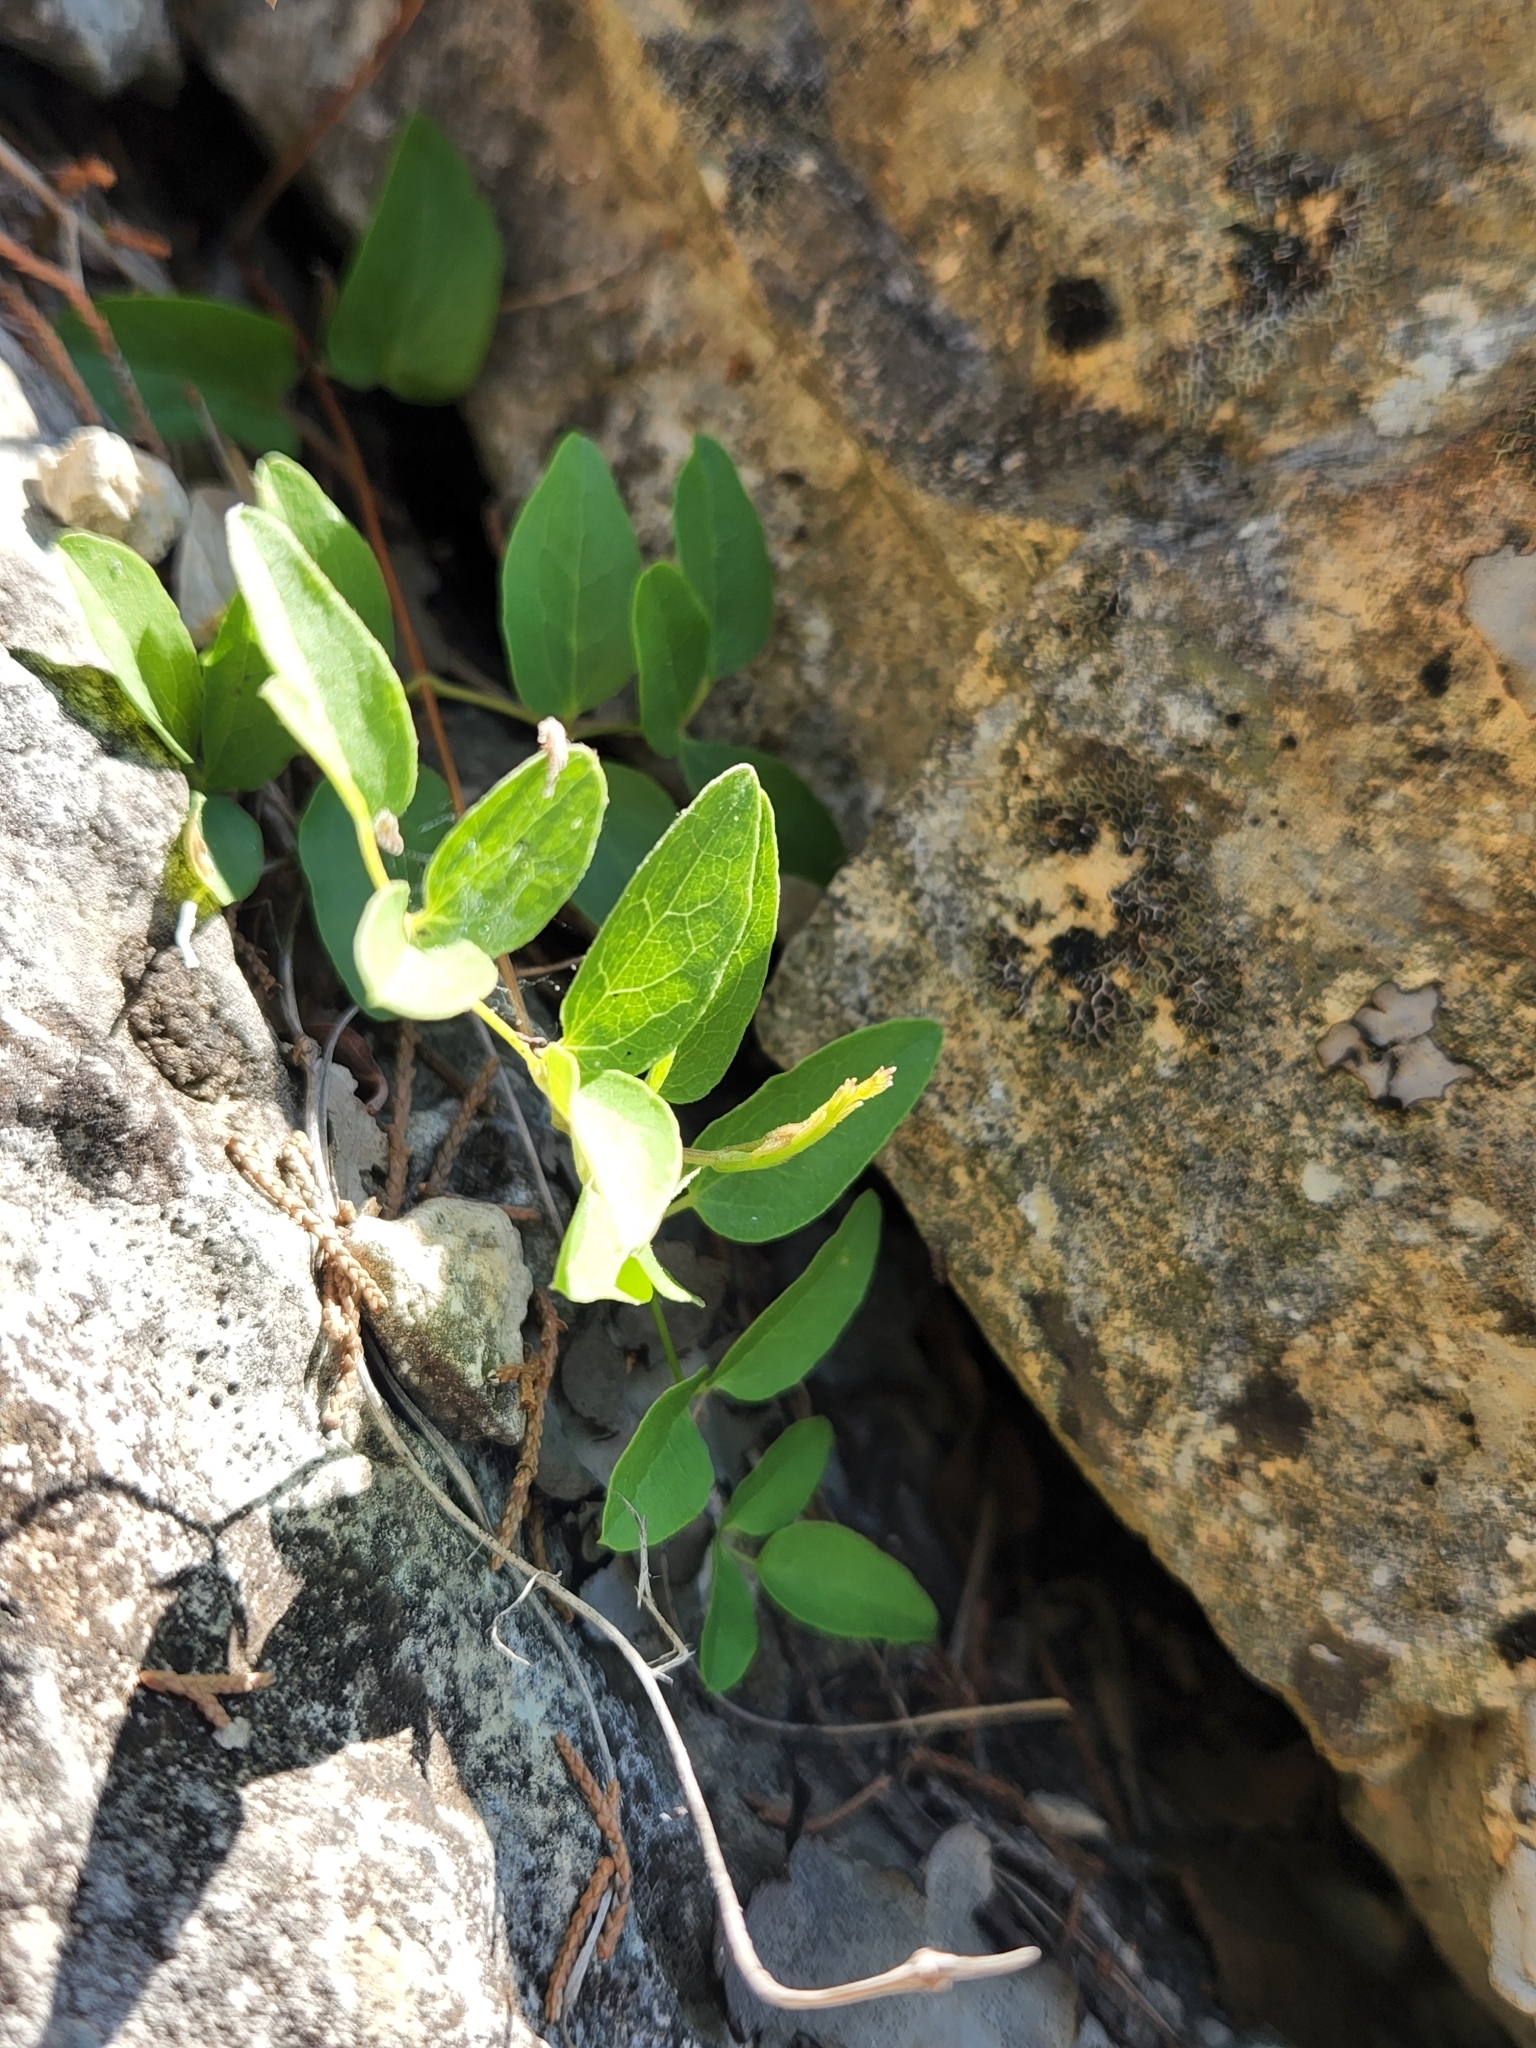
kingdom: Plantae
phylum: Tracheophyta
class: Magnoliopsida
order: Ranunculales
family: Ranunculaceae
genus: Clematis
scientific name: Clematis pitcheri
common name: Bellflower clematis
